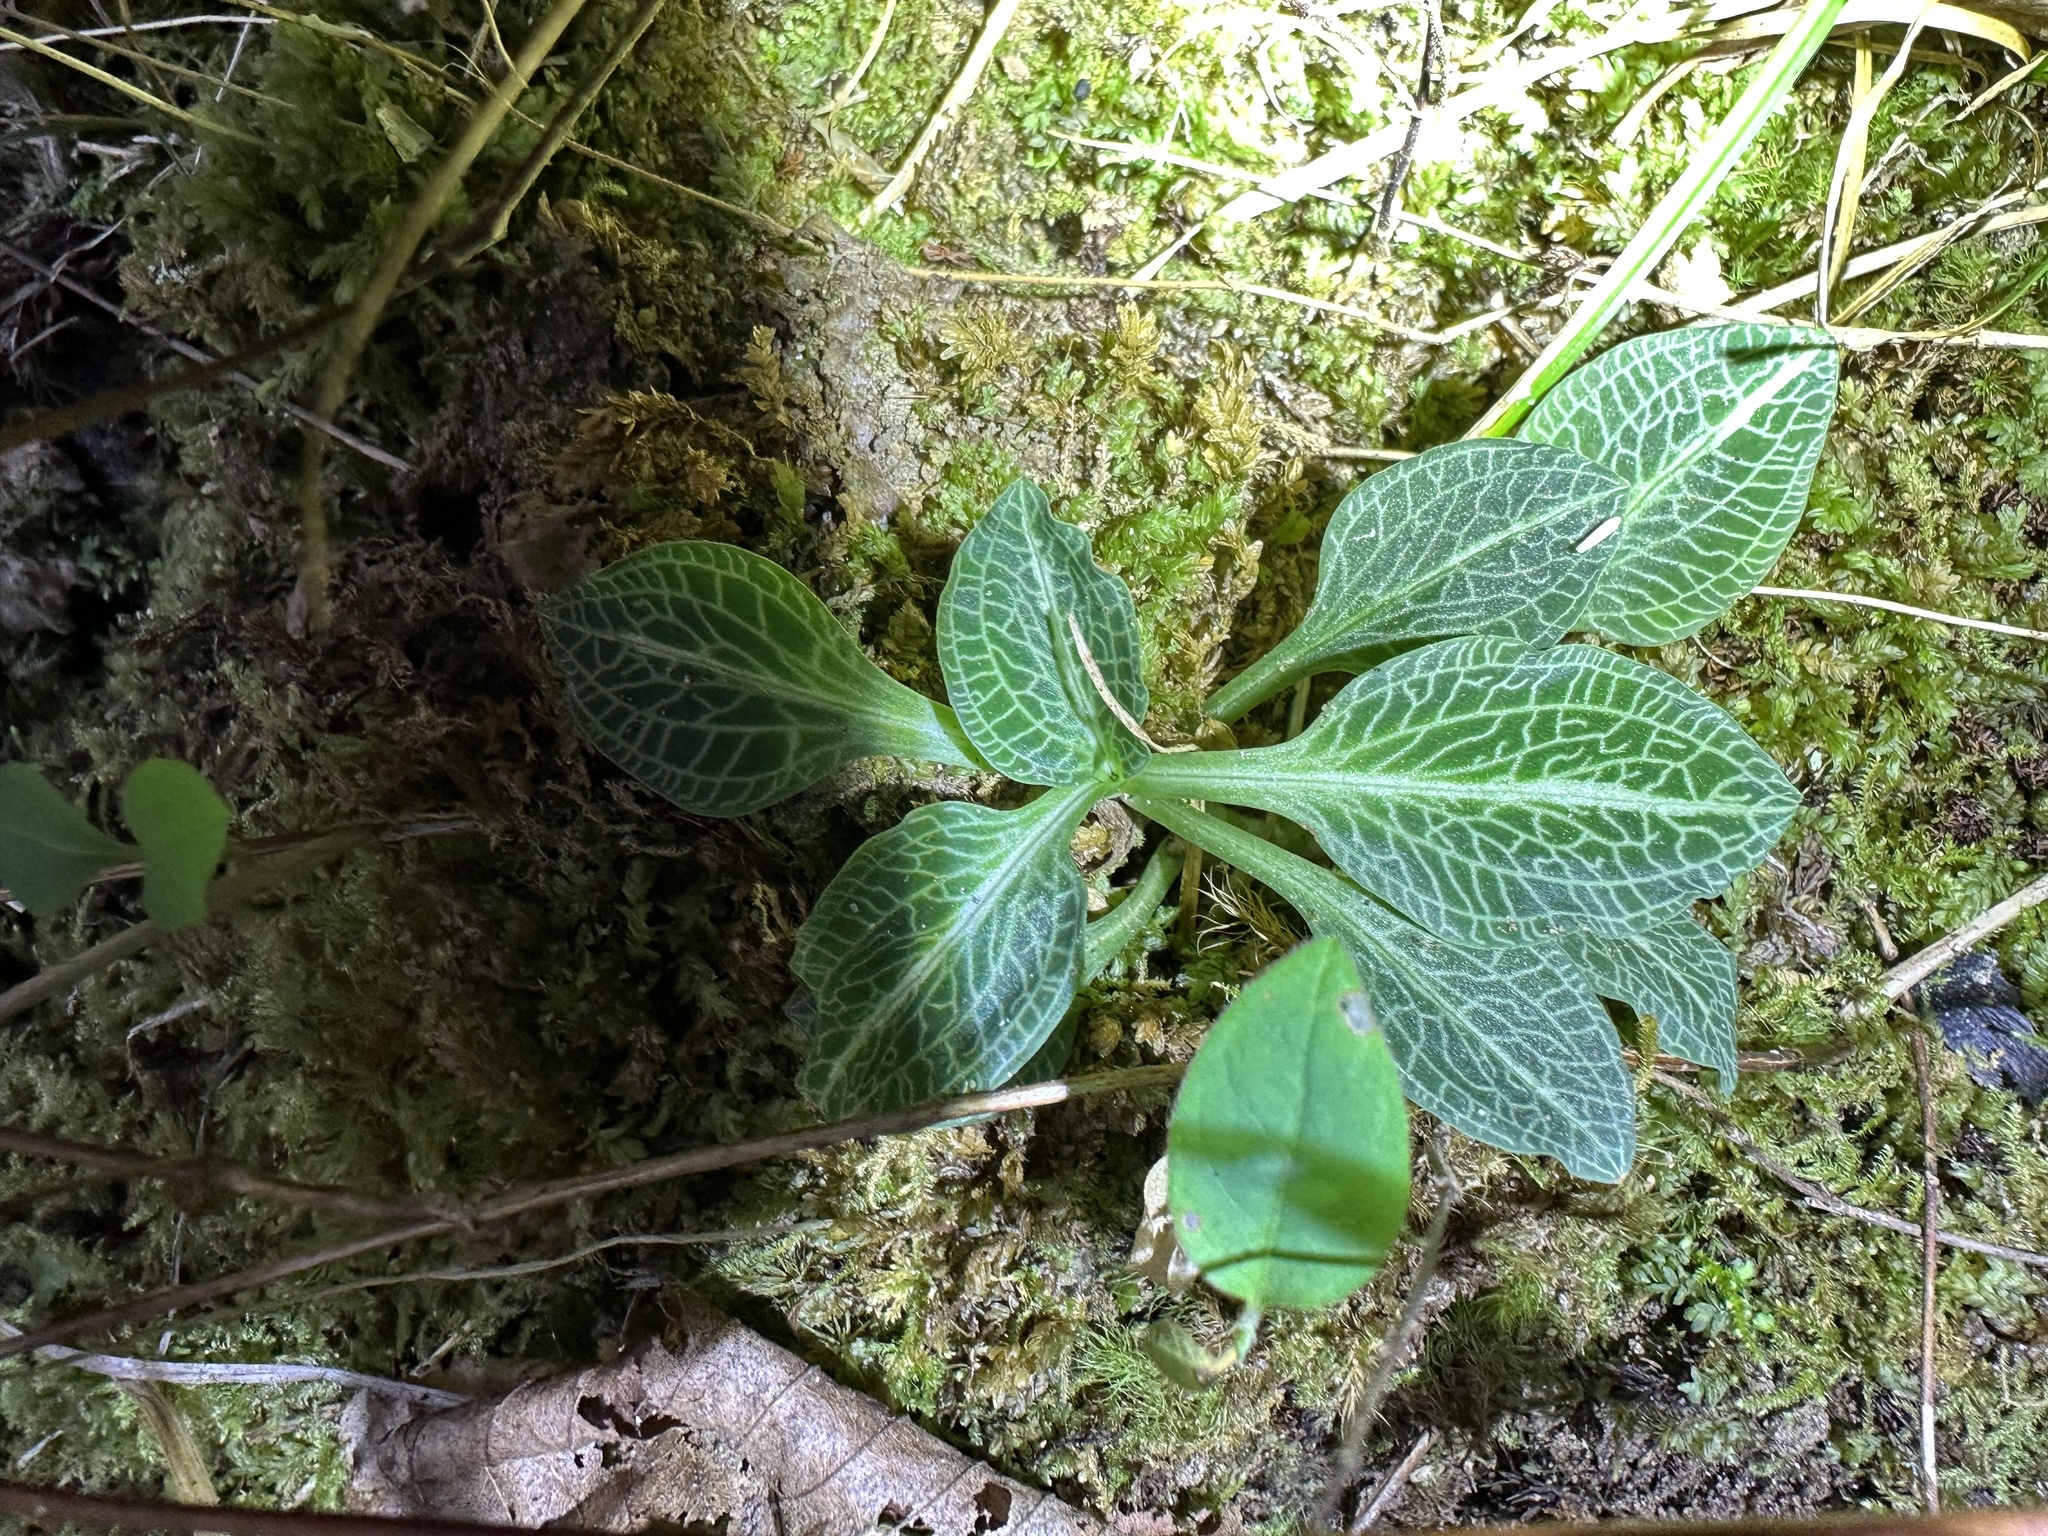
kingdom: Plantae
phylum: Tracheophyta
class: Liliopsida
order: Asparagales
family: Orchidaceae
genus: Goodyera
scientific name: Goodyera pubescens
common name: Downy rattlesnake-plantain
